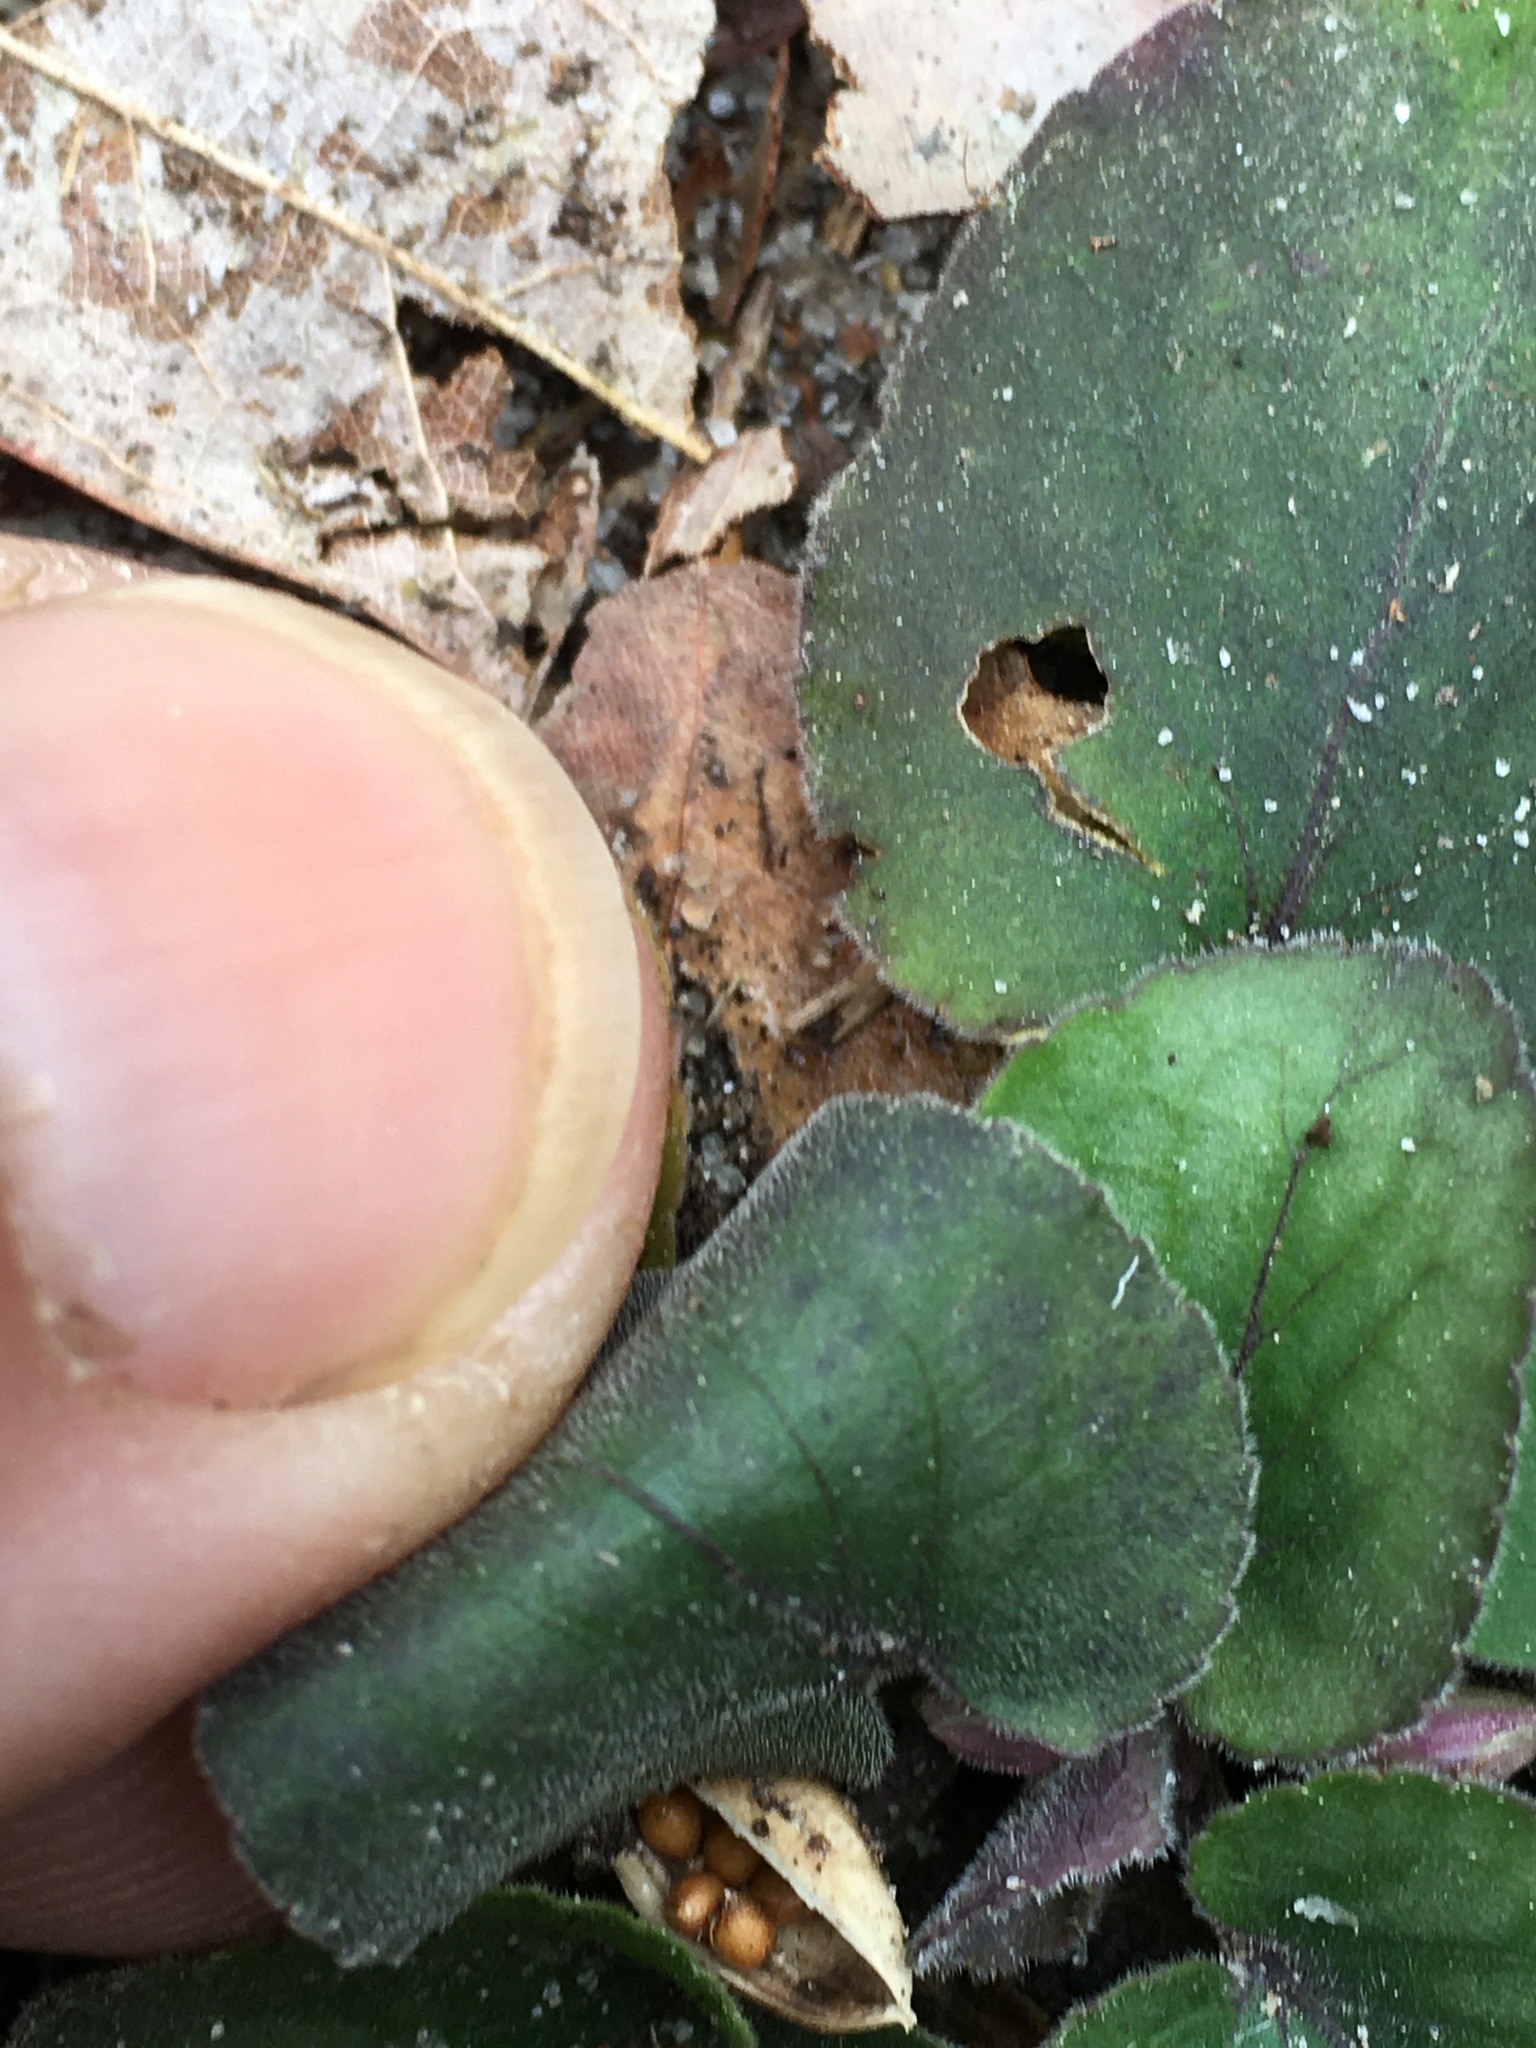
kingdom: Plantae
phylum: Tracheophyta
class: Magnoliopsida
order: Malpighiales
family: Violaceae
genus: Viola
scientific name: Viola hirsutula
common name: Southern wood violet
